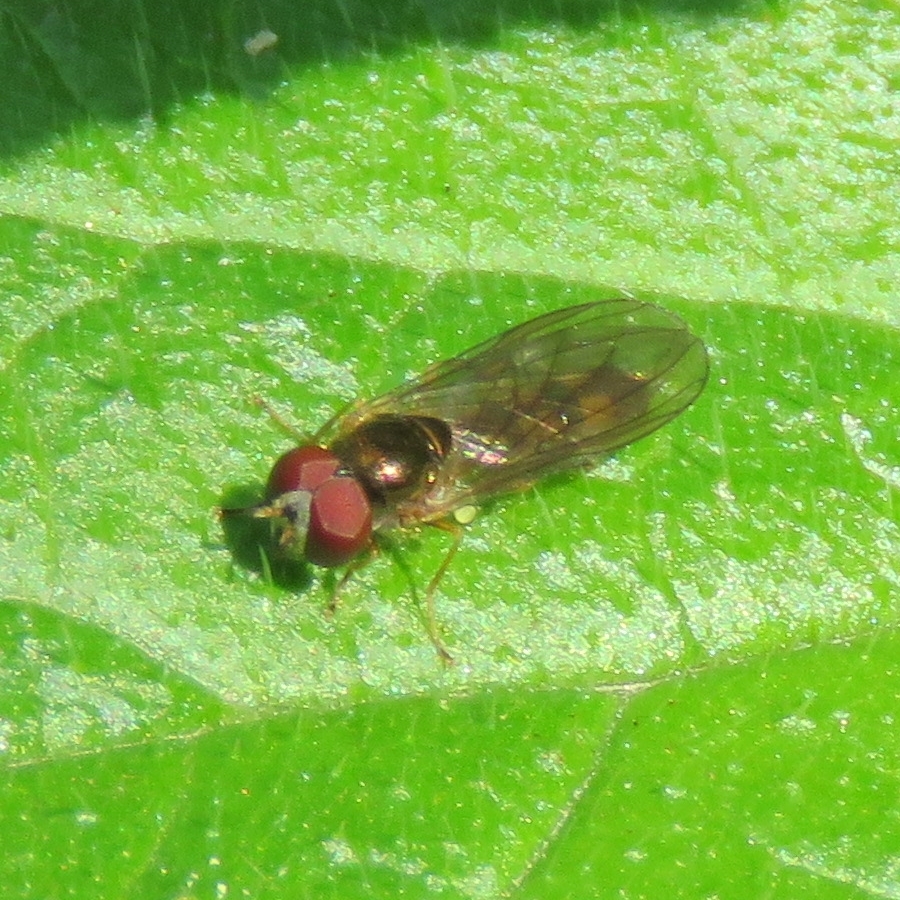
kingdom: Animalia
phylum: Arthropoda
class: Insecta
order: Diptera
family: Syrphidae
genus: Melanostoma
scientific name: Melanostoma scalare
